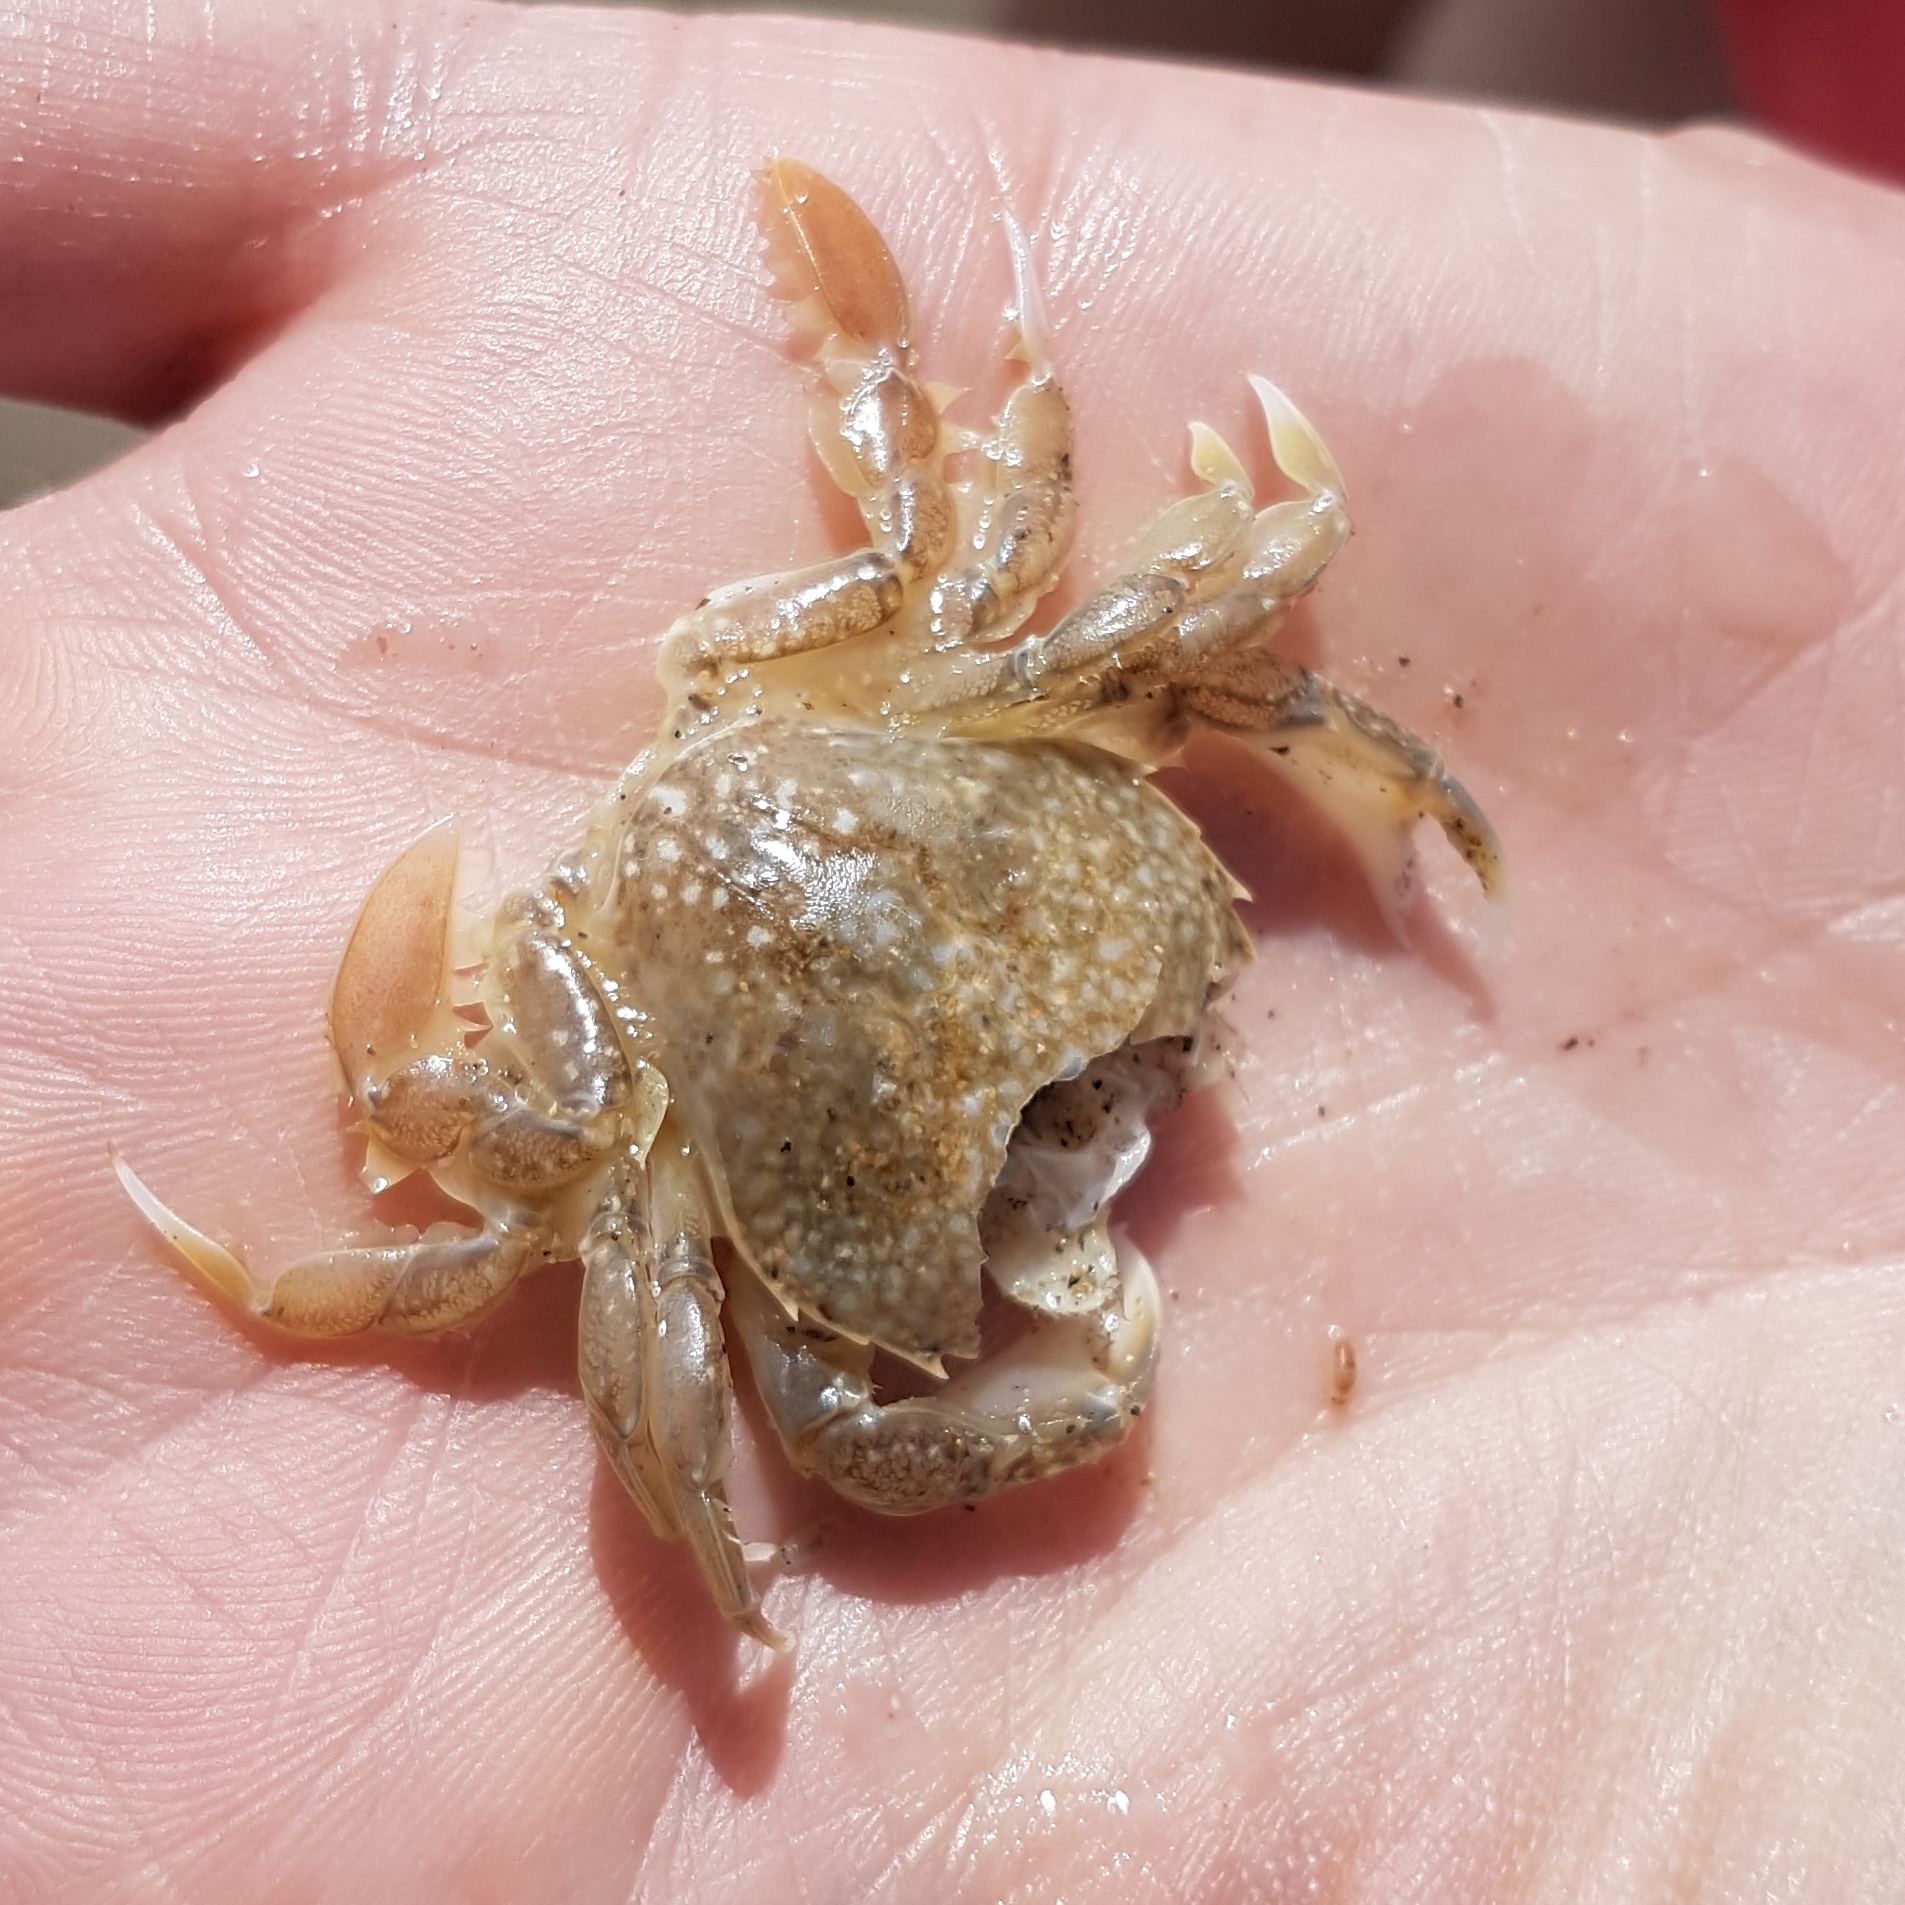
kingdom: Animalia
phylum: Arthropoda
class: Malacostraca
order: Decapoda
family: Carcinidae
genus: Portumnus
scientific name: Portumnus latipes
